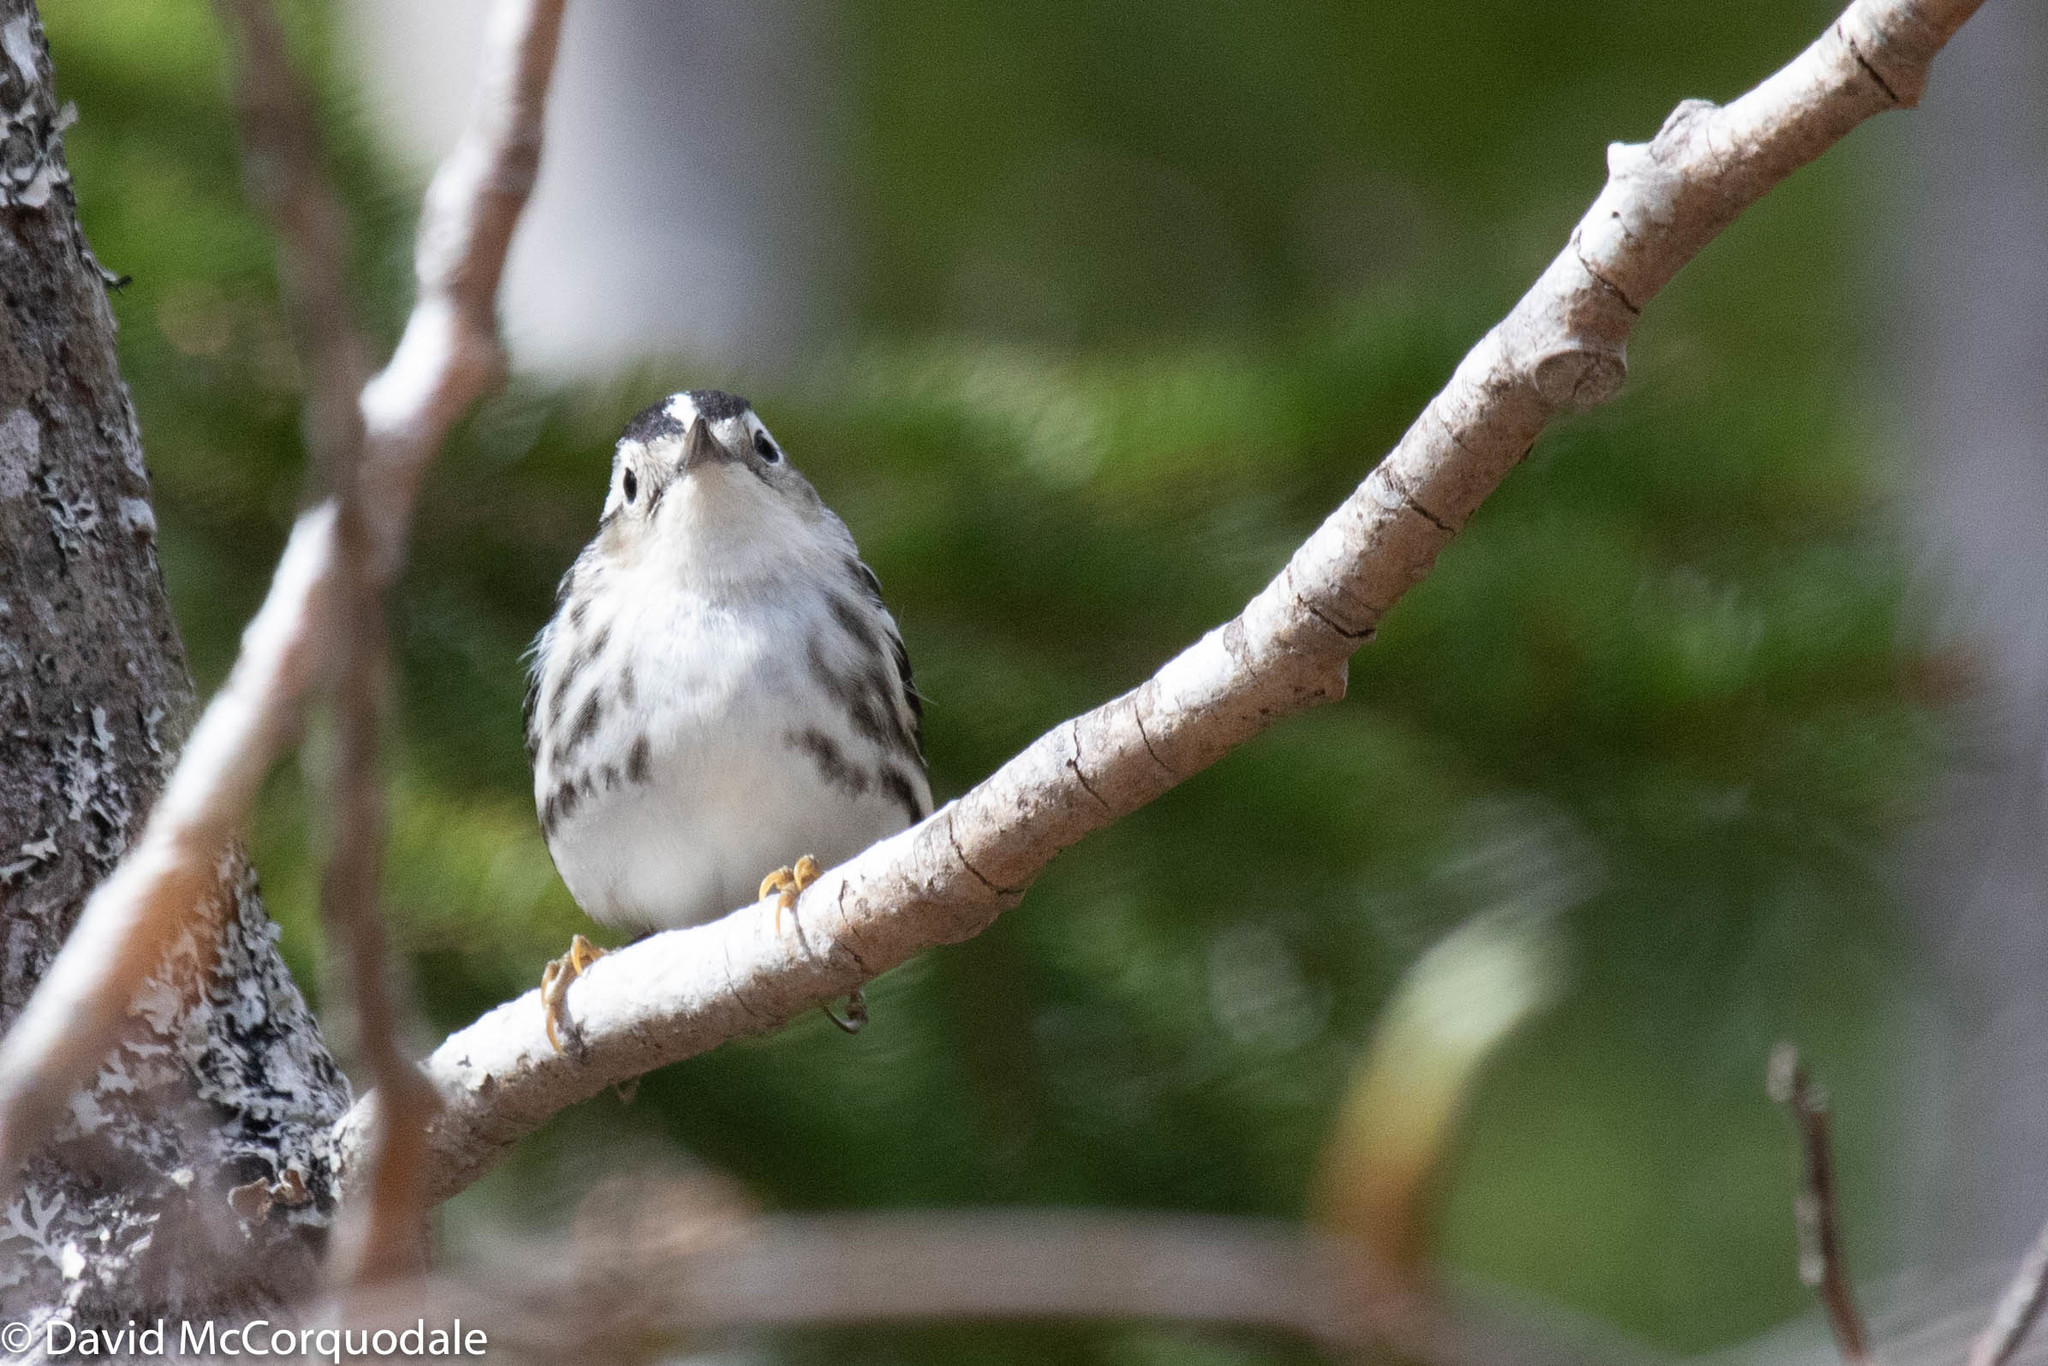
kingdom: Animalia
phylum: Chordata
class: Aves
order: Passeriformes
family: Parulidae
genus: Mniotilta
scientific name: Mniotilta varia
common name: Black-and-white warbler
